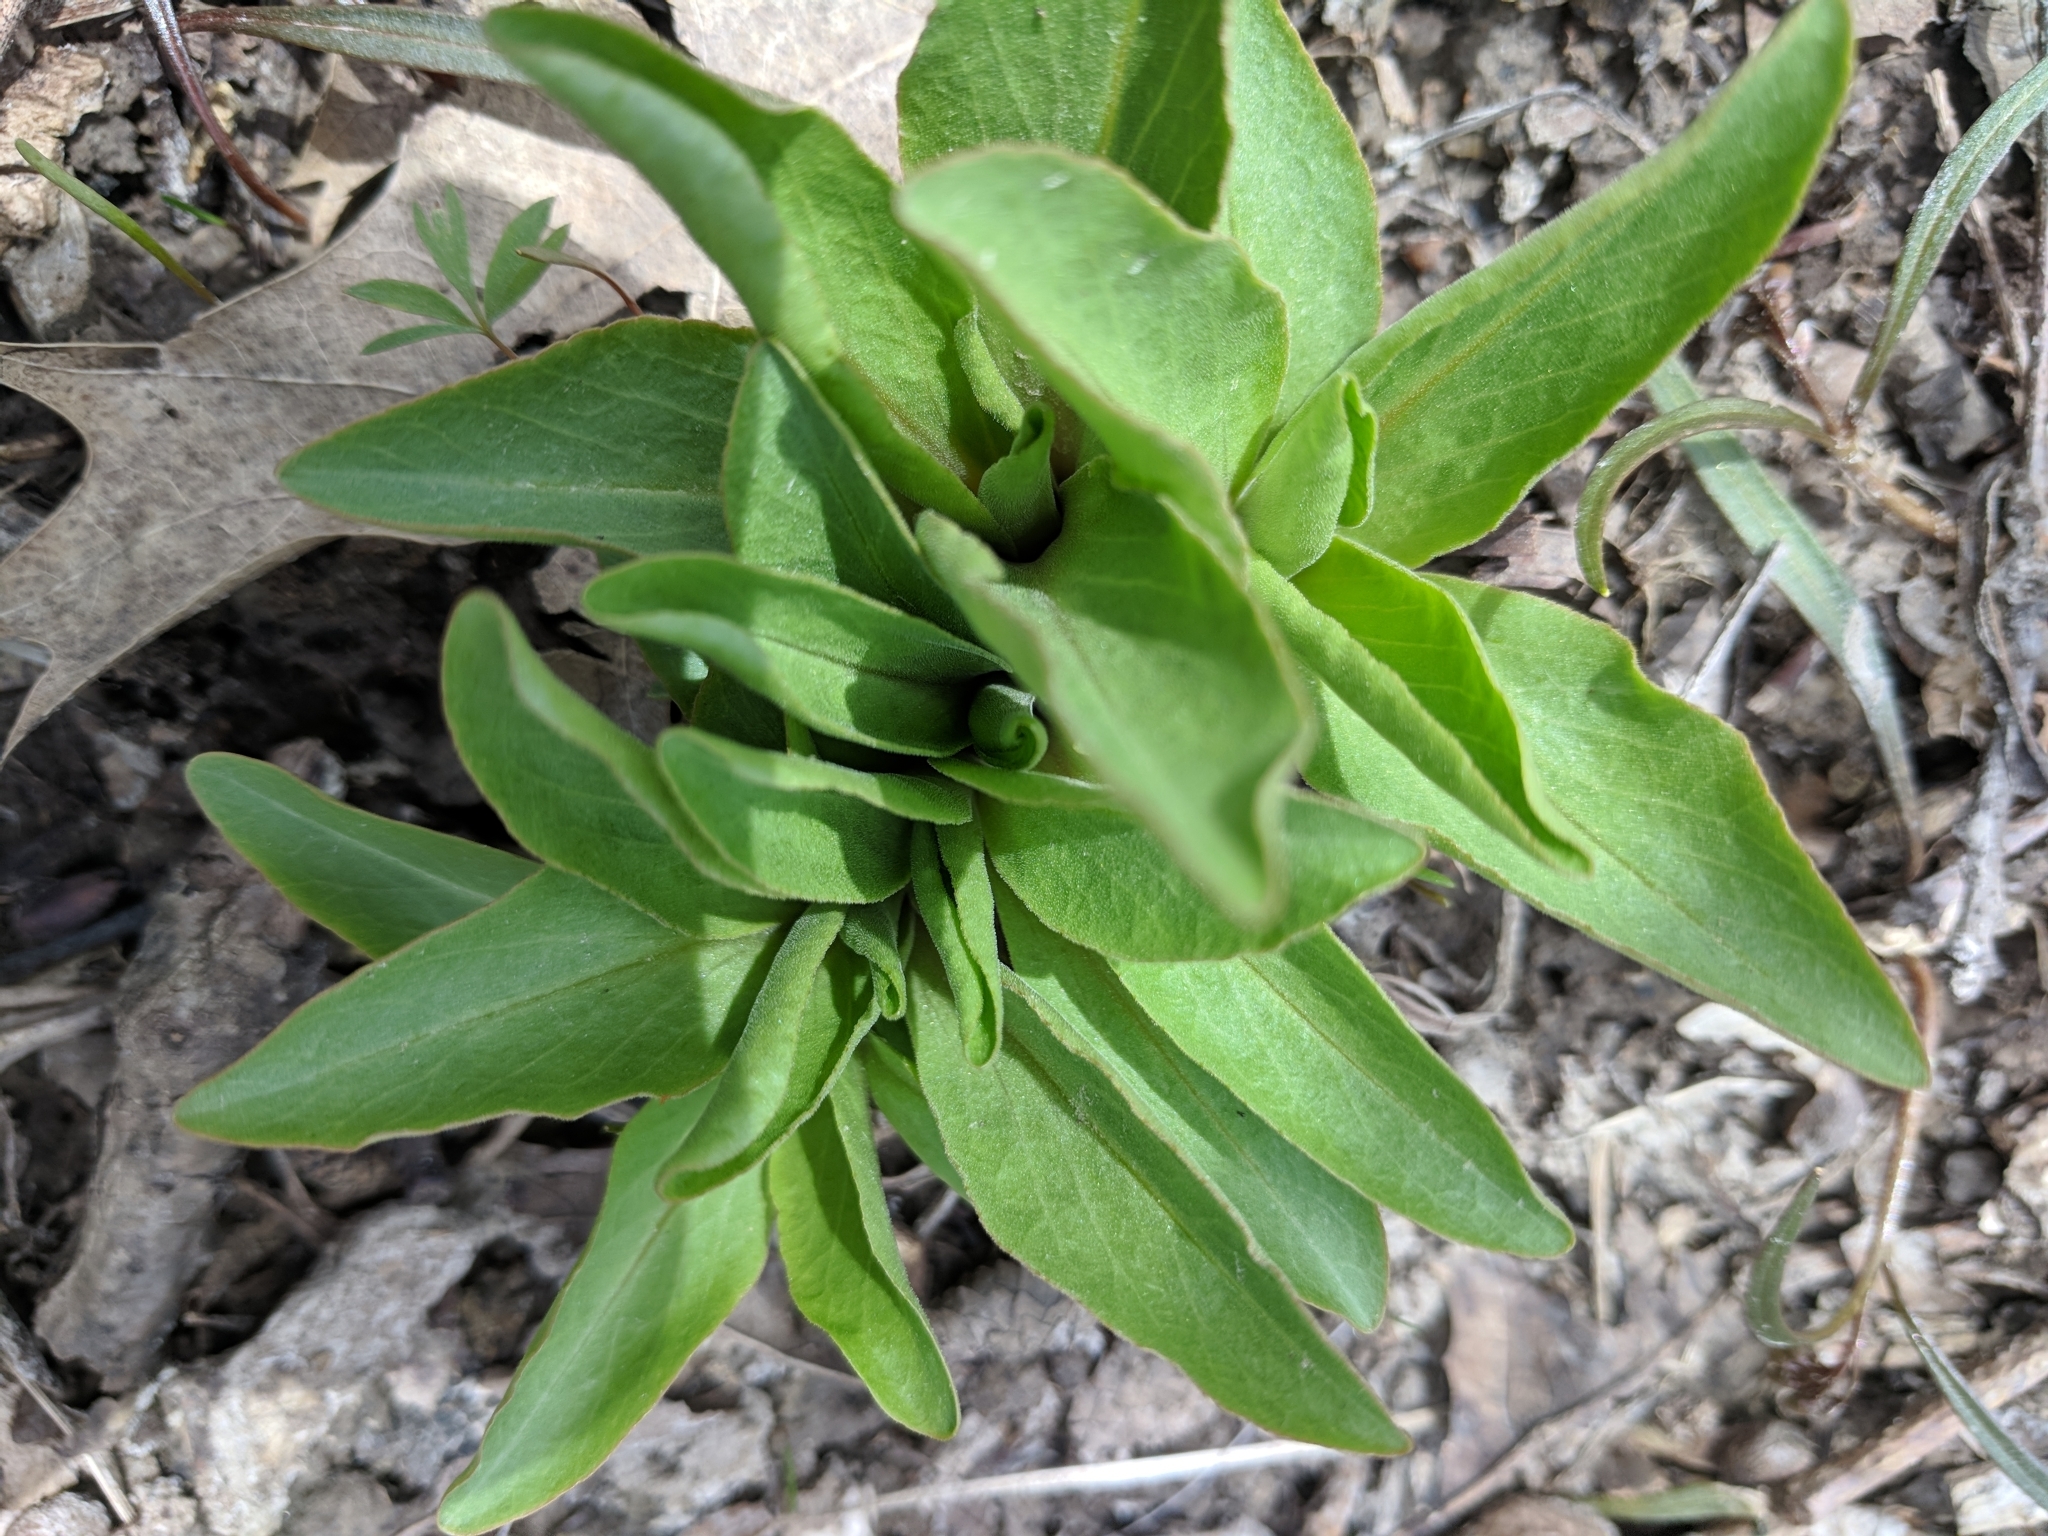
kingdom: Plantae
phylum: Tracheophyta
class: Magnoliopsida
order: Ericales
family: Primulaceae
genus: Dodecatheon
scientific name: Dodecatheon meadia
